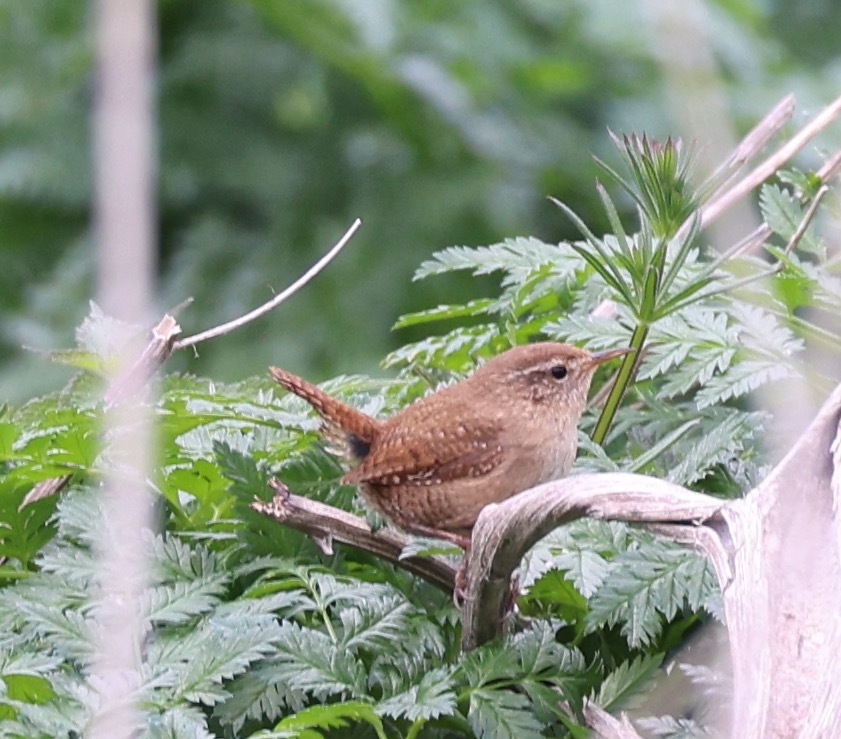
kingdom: Animalia
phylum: Chordata
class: Aves
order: Passeriformes
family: Troglodytidae
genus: Troglodytes
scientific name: Troglodytes troglodytes
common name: Eurasian wren
